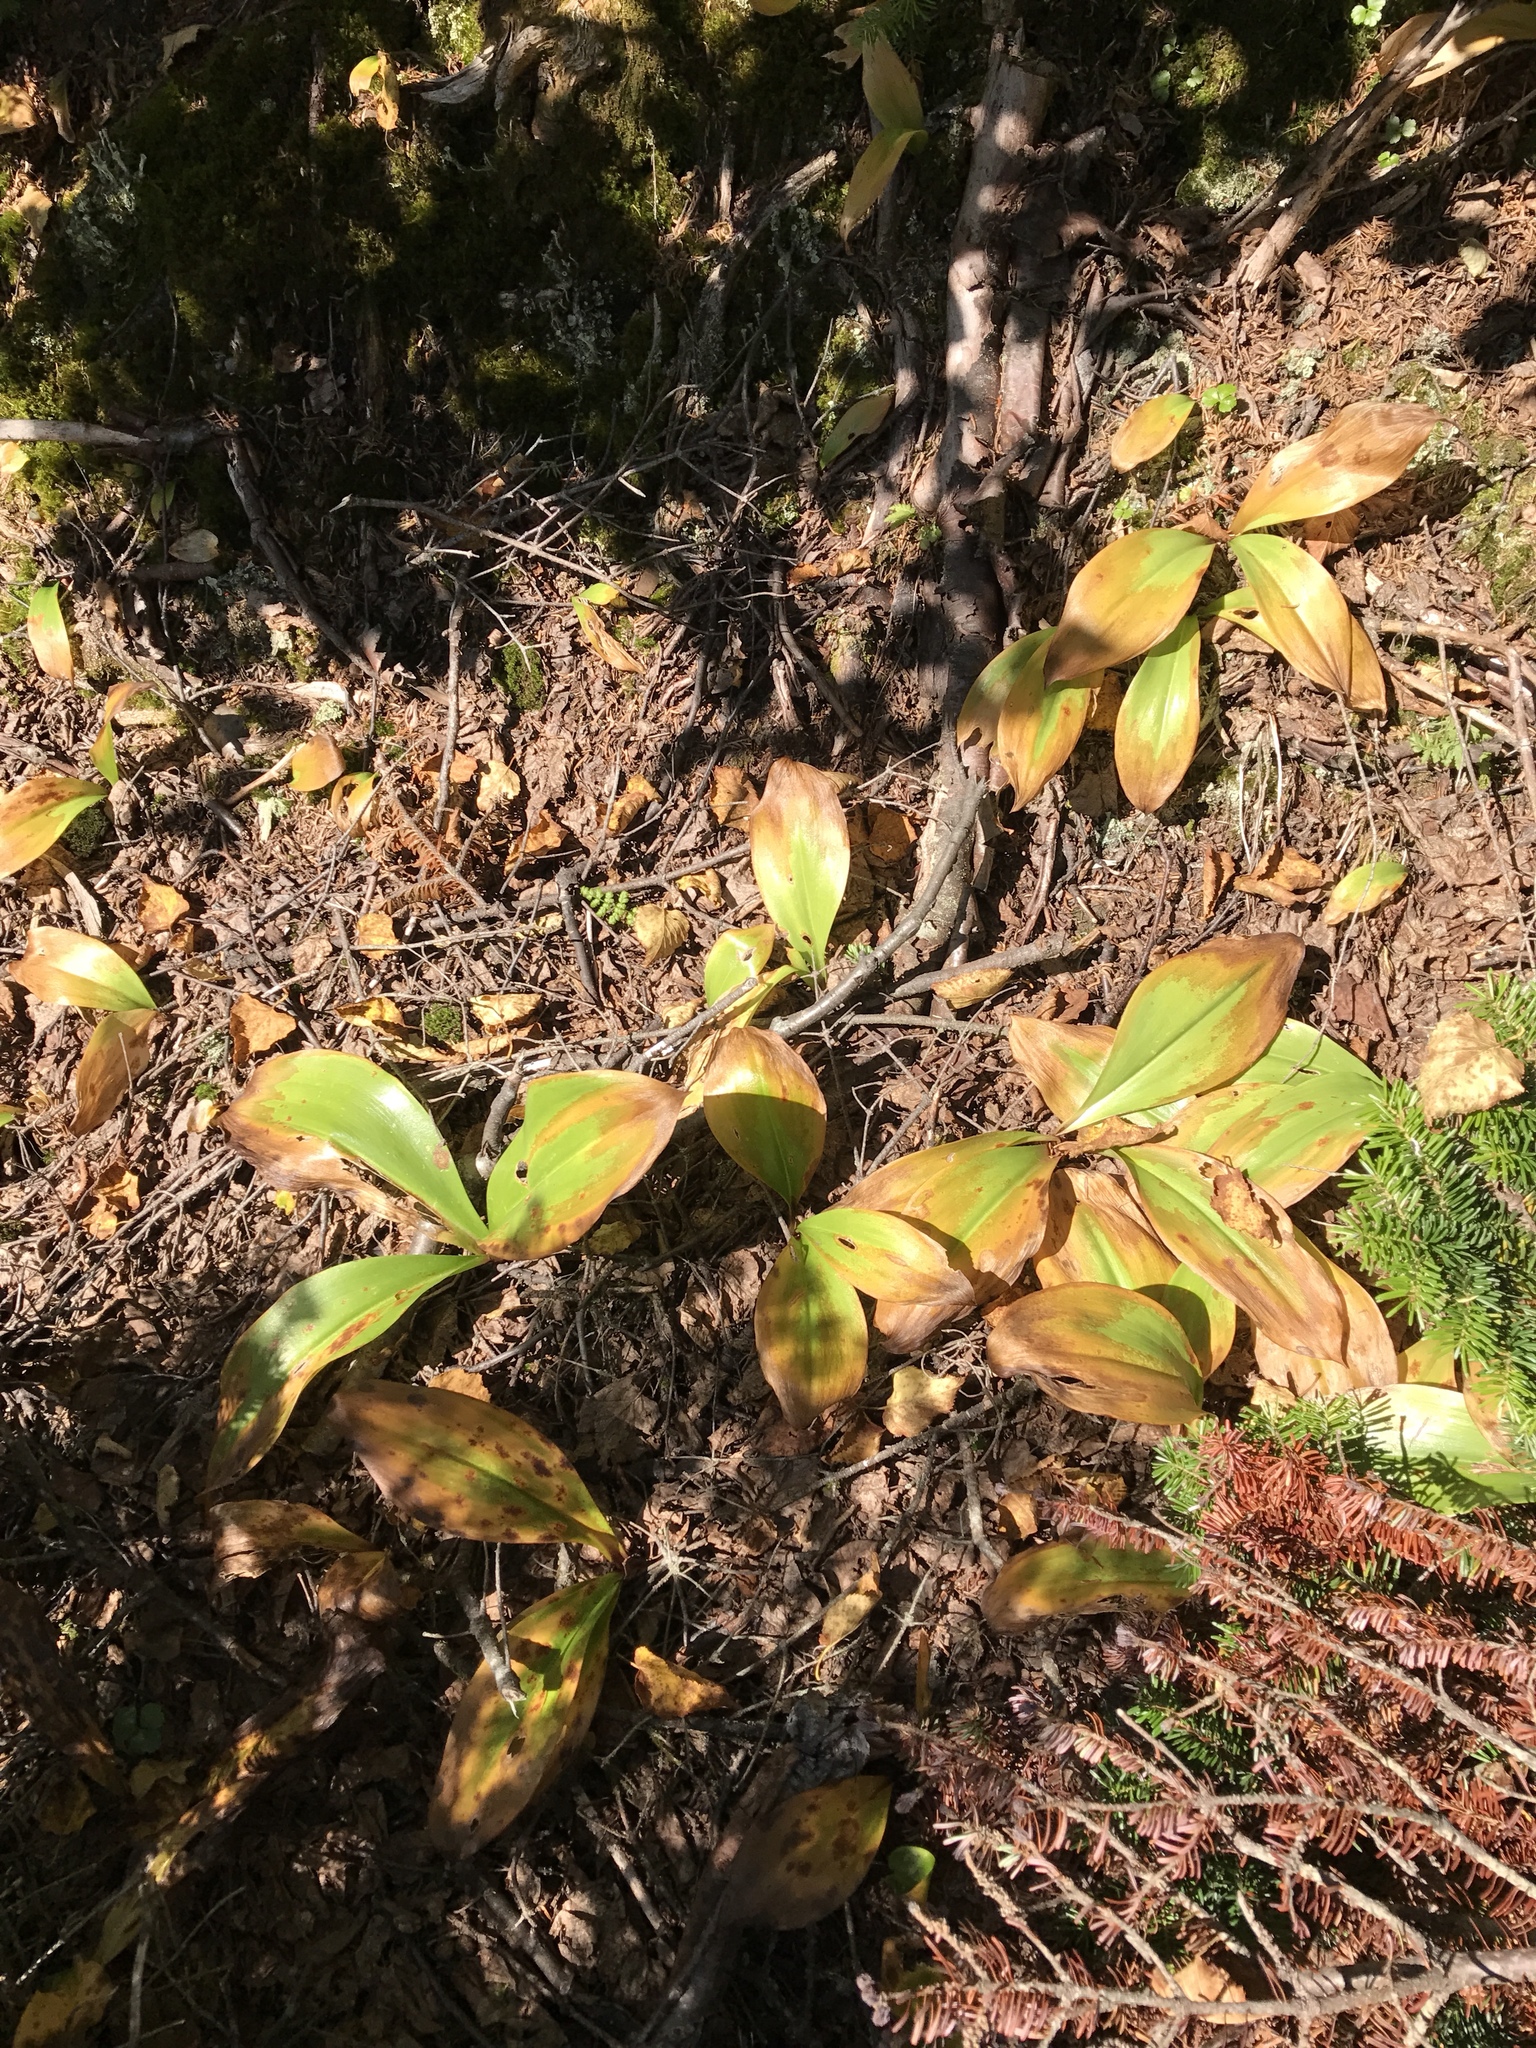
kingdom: Plantae
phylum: Tracheophyta
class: Liliopsida
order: Liliales
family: Liliaceae
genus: Clintonia
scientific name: Clintonia borealis
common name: Yellow clintonia
